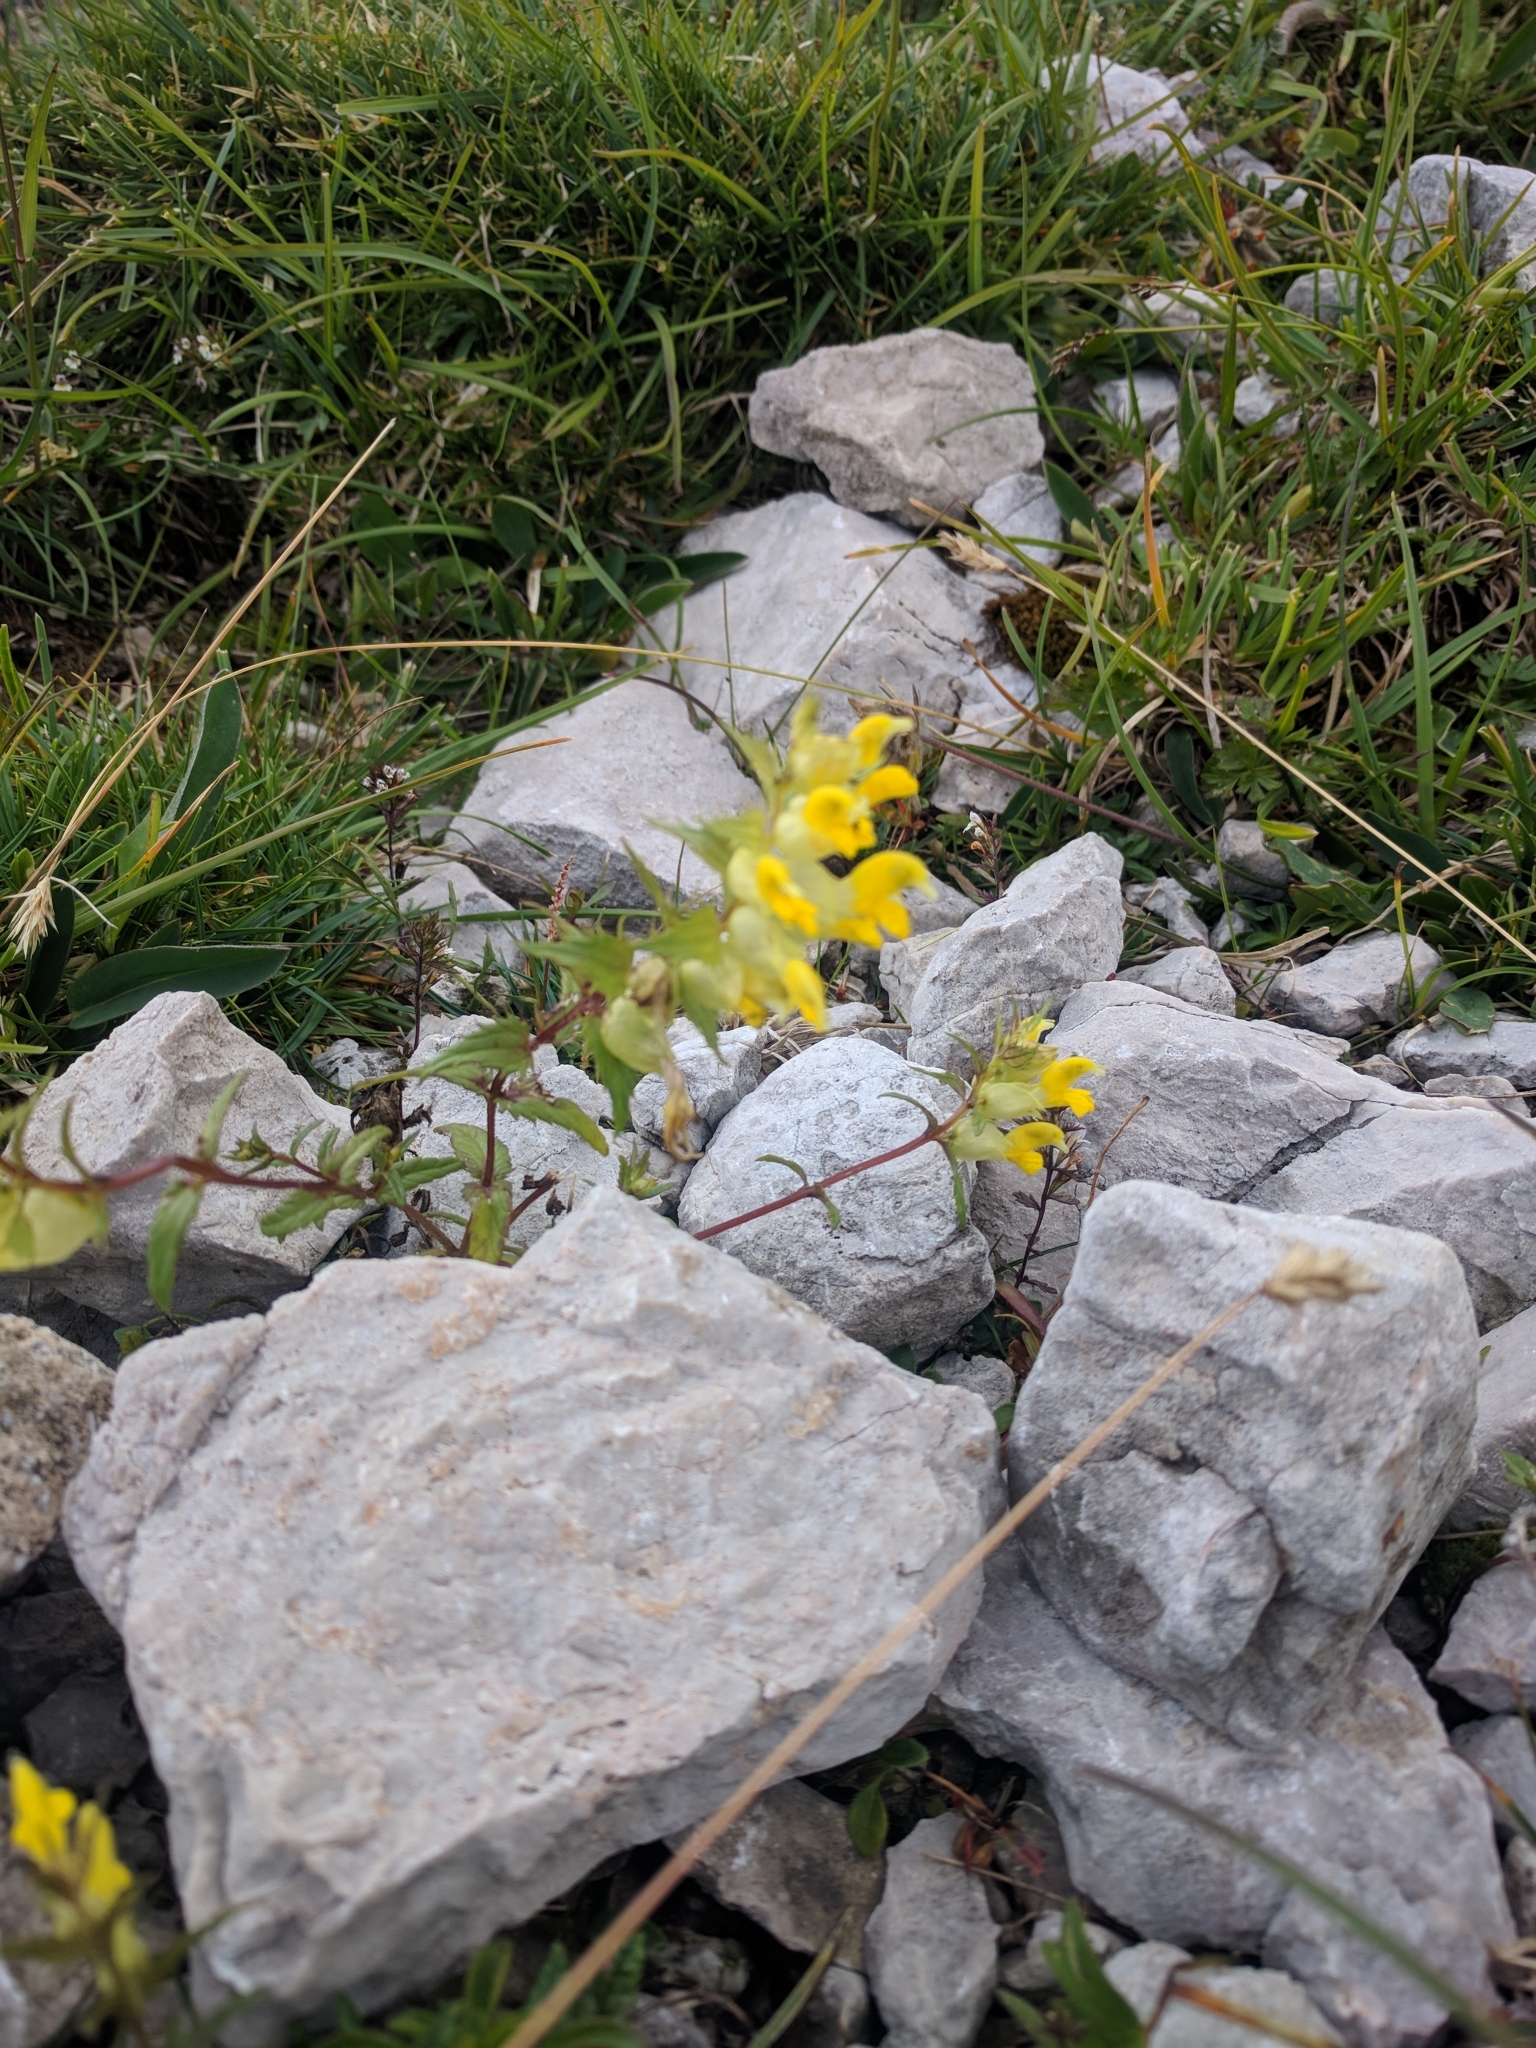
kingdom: Plantae
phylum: Tracheophyta
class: Magnoliopsida
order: Lamiales
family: Orobanchaceae
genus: Rhinanthus
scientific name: Rhinanthus glacialis
